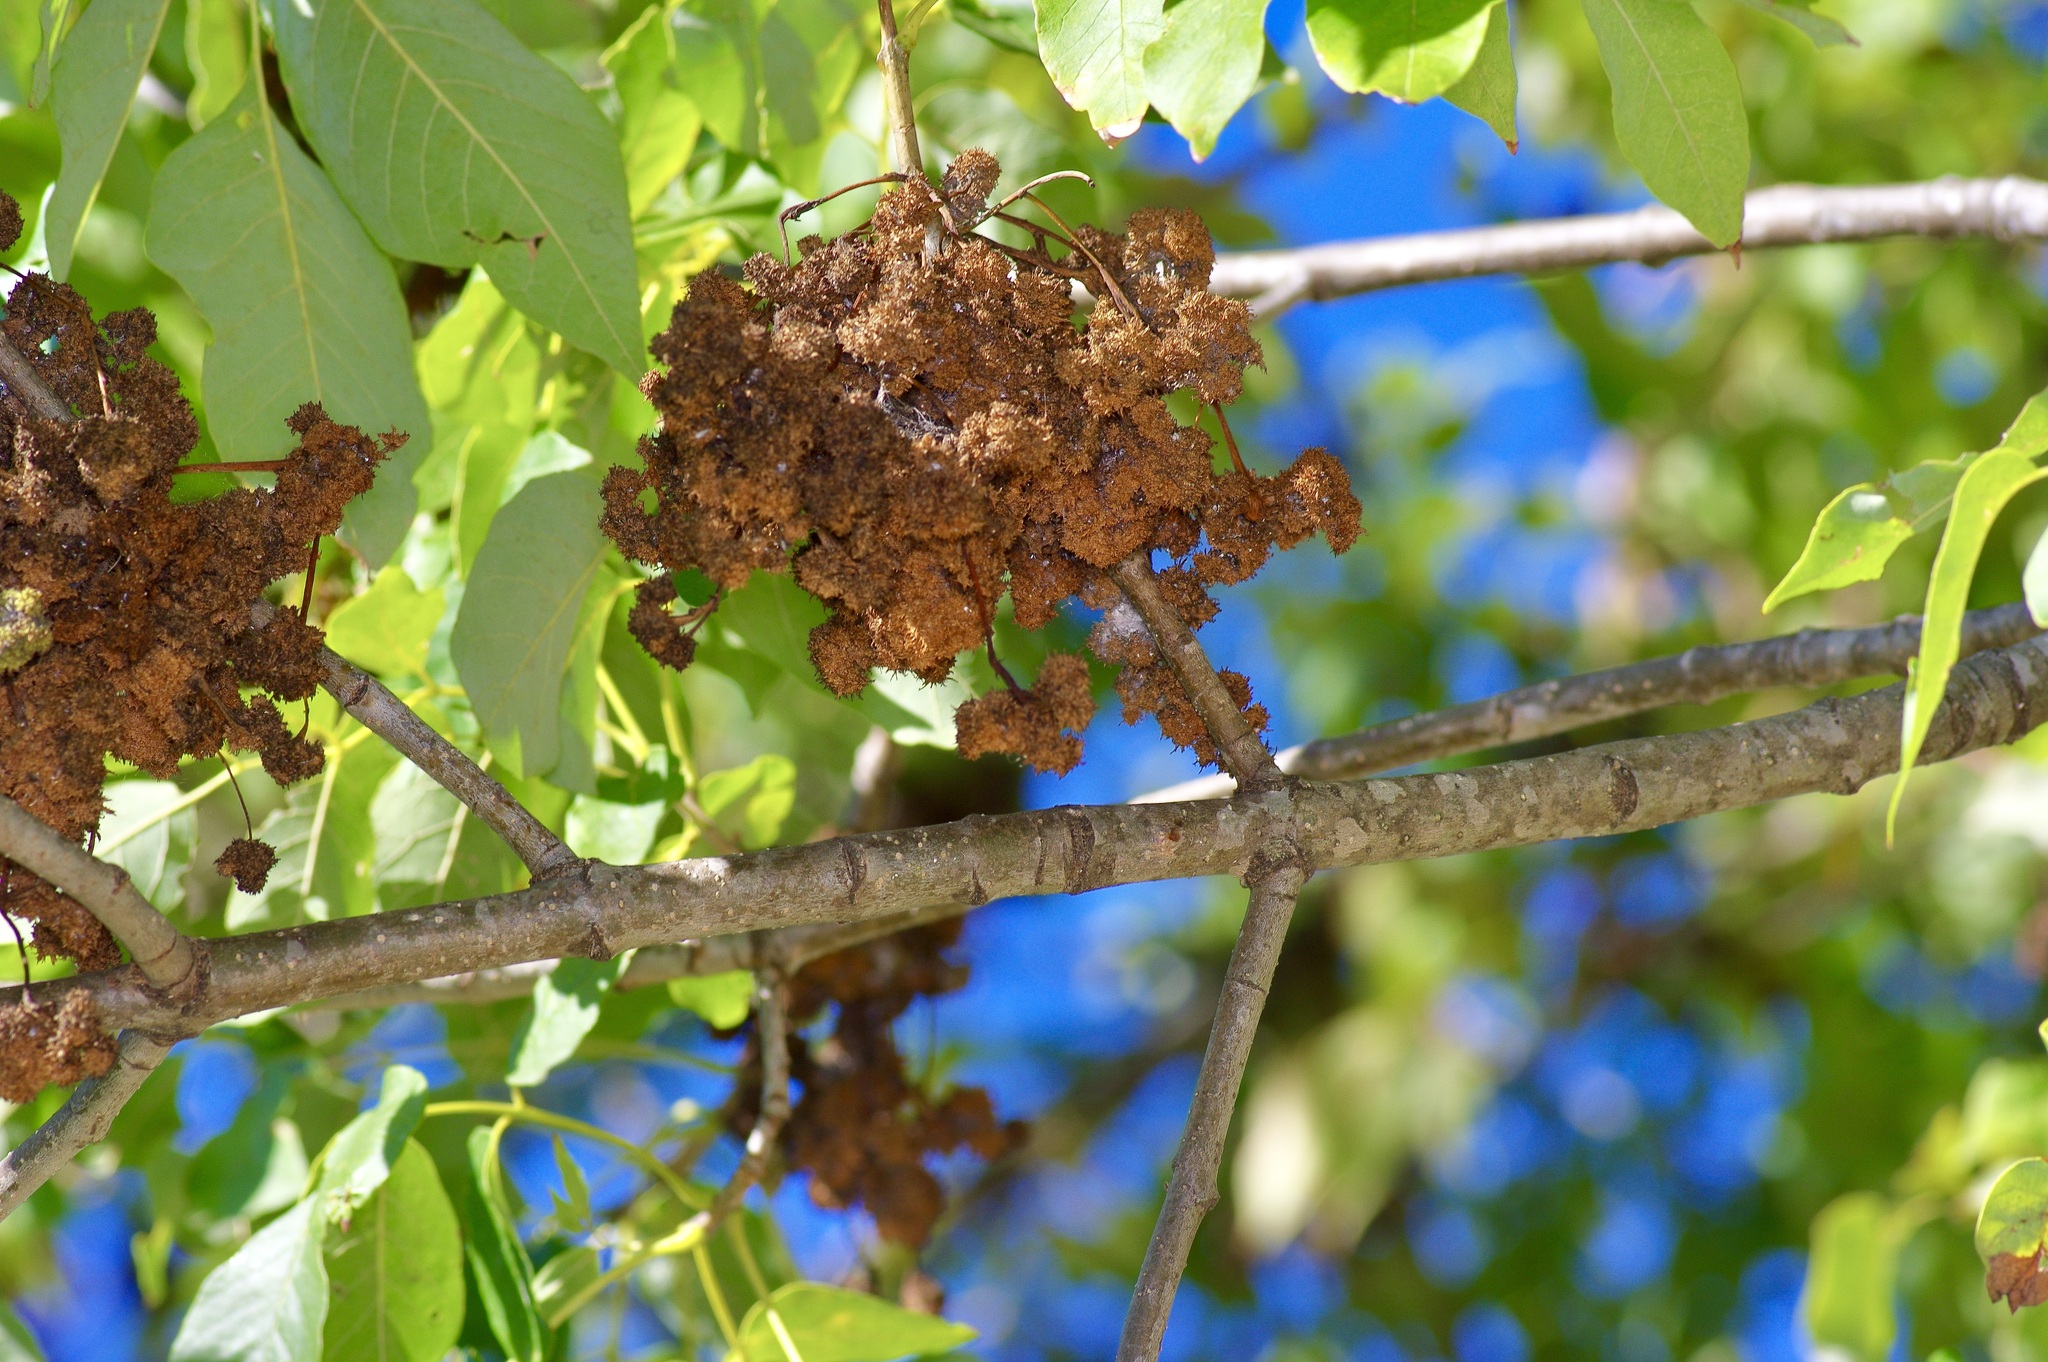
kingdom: Animalia
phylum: Arthropoda
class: Arachnida
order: Trombidiformes
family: Eriophyidae
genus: Aceria
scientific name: Aceria fraxiniflora
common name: Ash flower gall mite
